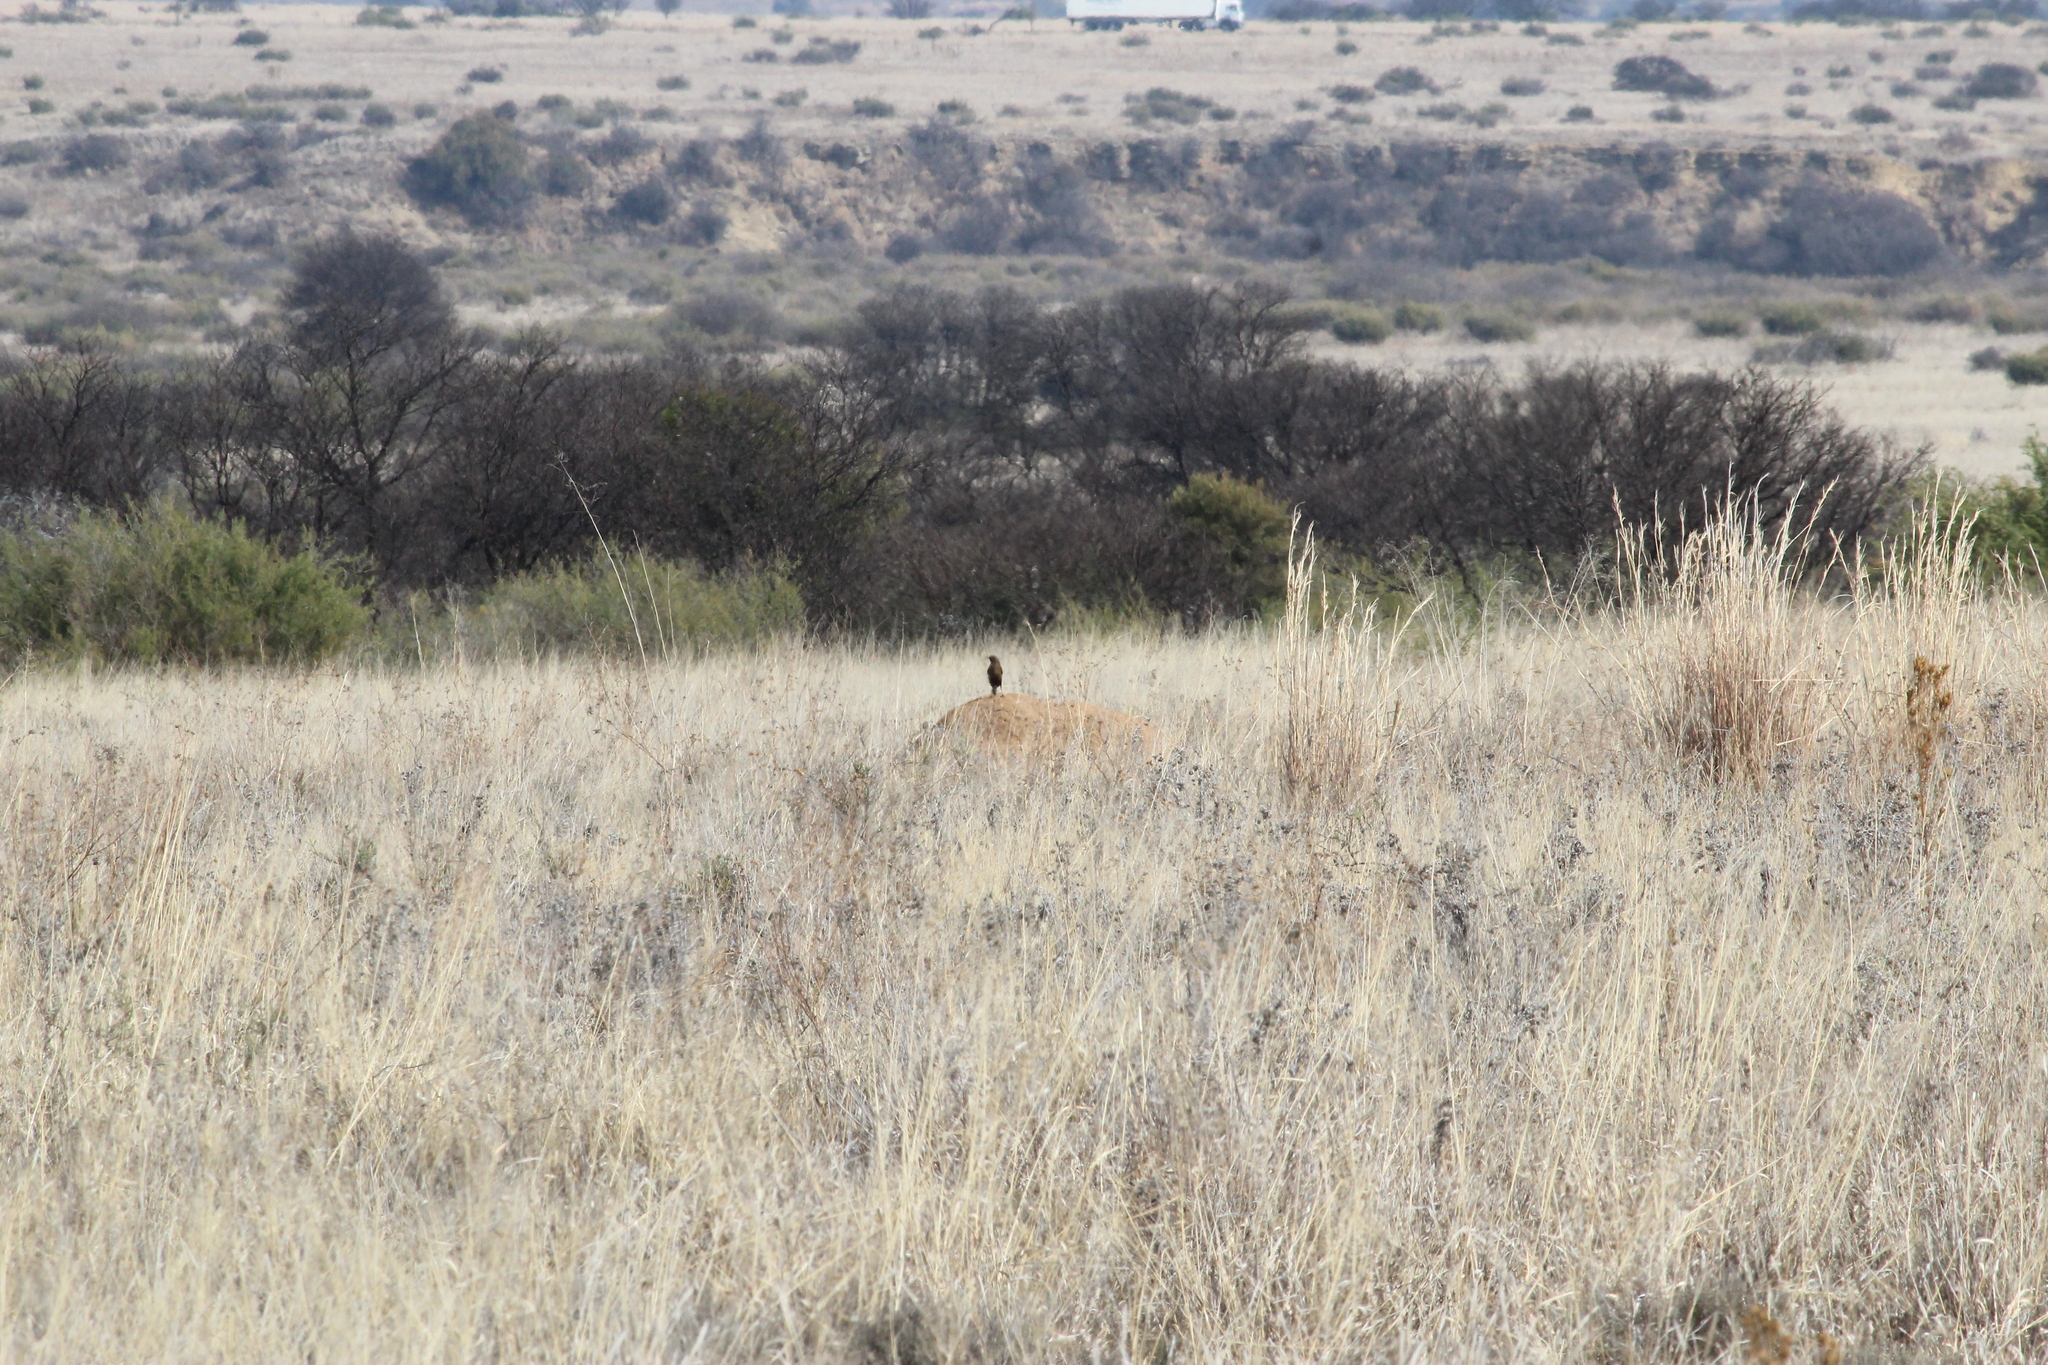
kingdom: Animalia
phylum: Chordata
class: Aves
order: Passeriformes
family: Muscicapidae
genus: Myrmecocichla
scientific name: Myrmecocichla formicivora
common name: Ant-eating chat
